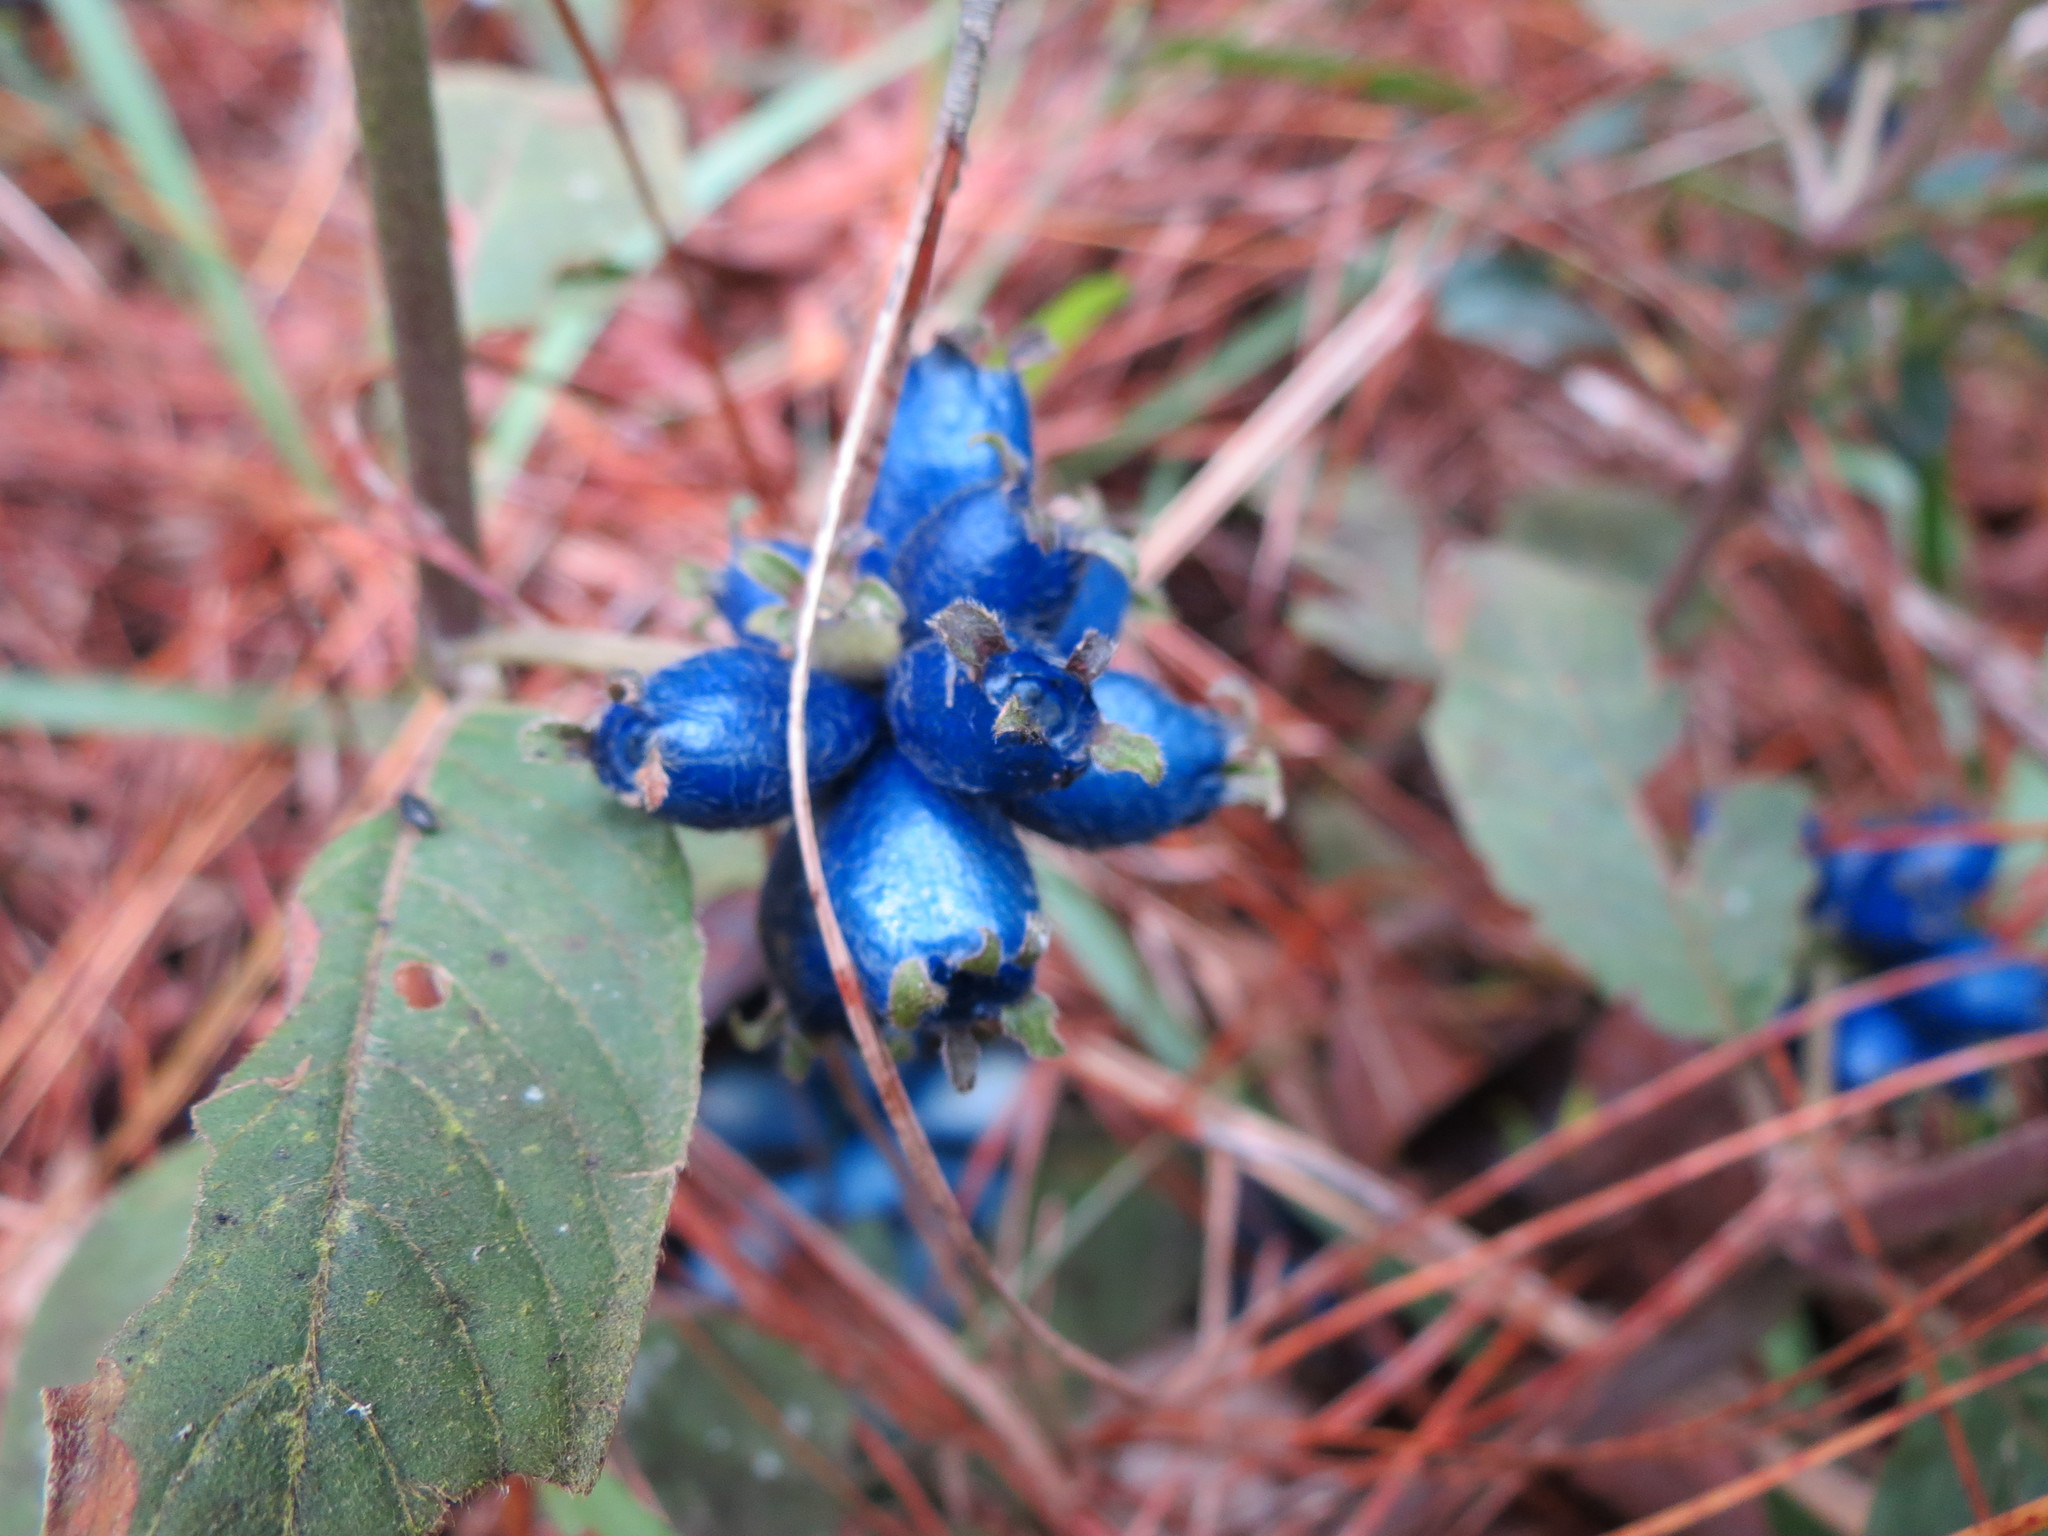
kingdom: Plantae
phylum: Tracheophyta
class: Magnoliopsida
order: Gentianales
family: Rubiaceae
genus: Coccocypselum
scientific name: Coccocypselum hirsutum
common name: Yerba de guava
